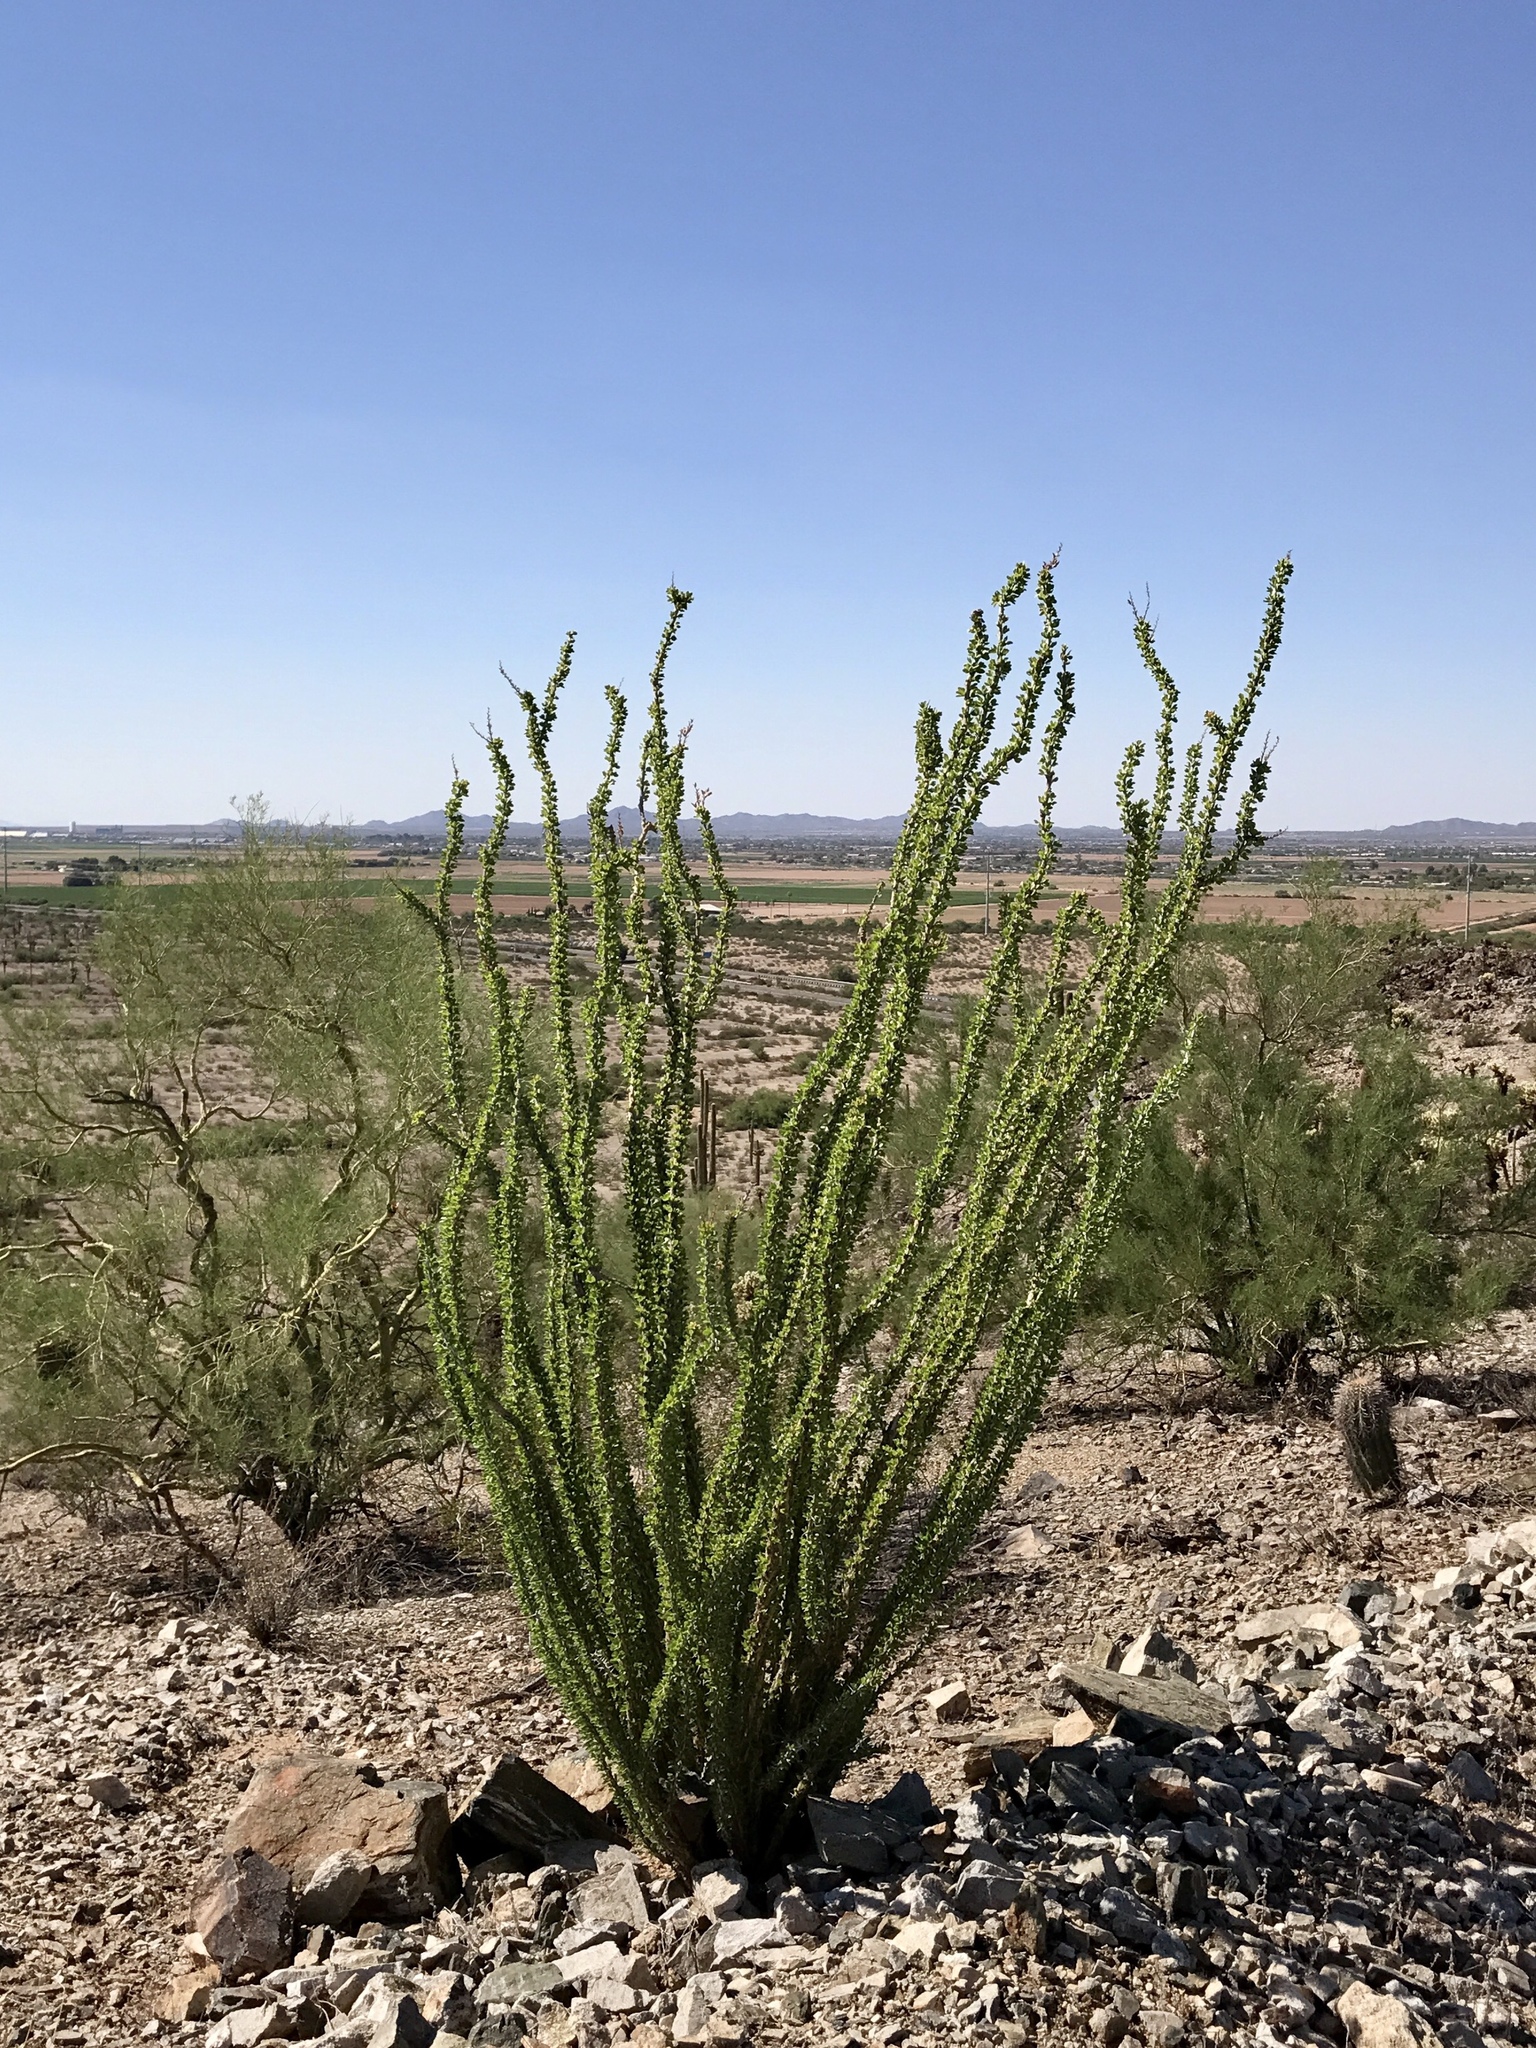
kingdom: Plantae
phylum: Tracheophyta
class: Magnoliopsida
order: Ericales
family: Fouquieriaceae
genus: Fouquieria
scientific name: Fouquieria splendens
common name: Vine-cactus
